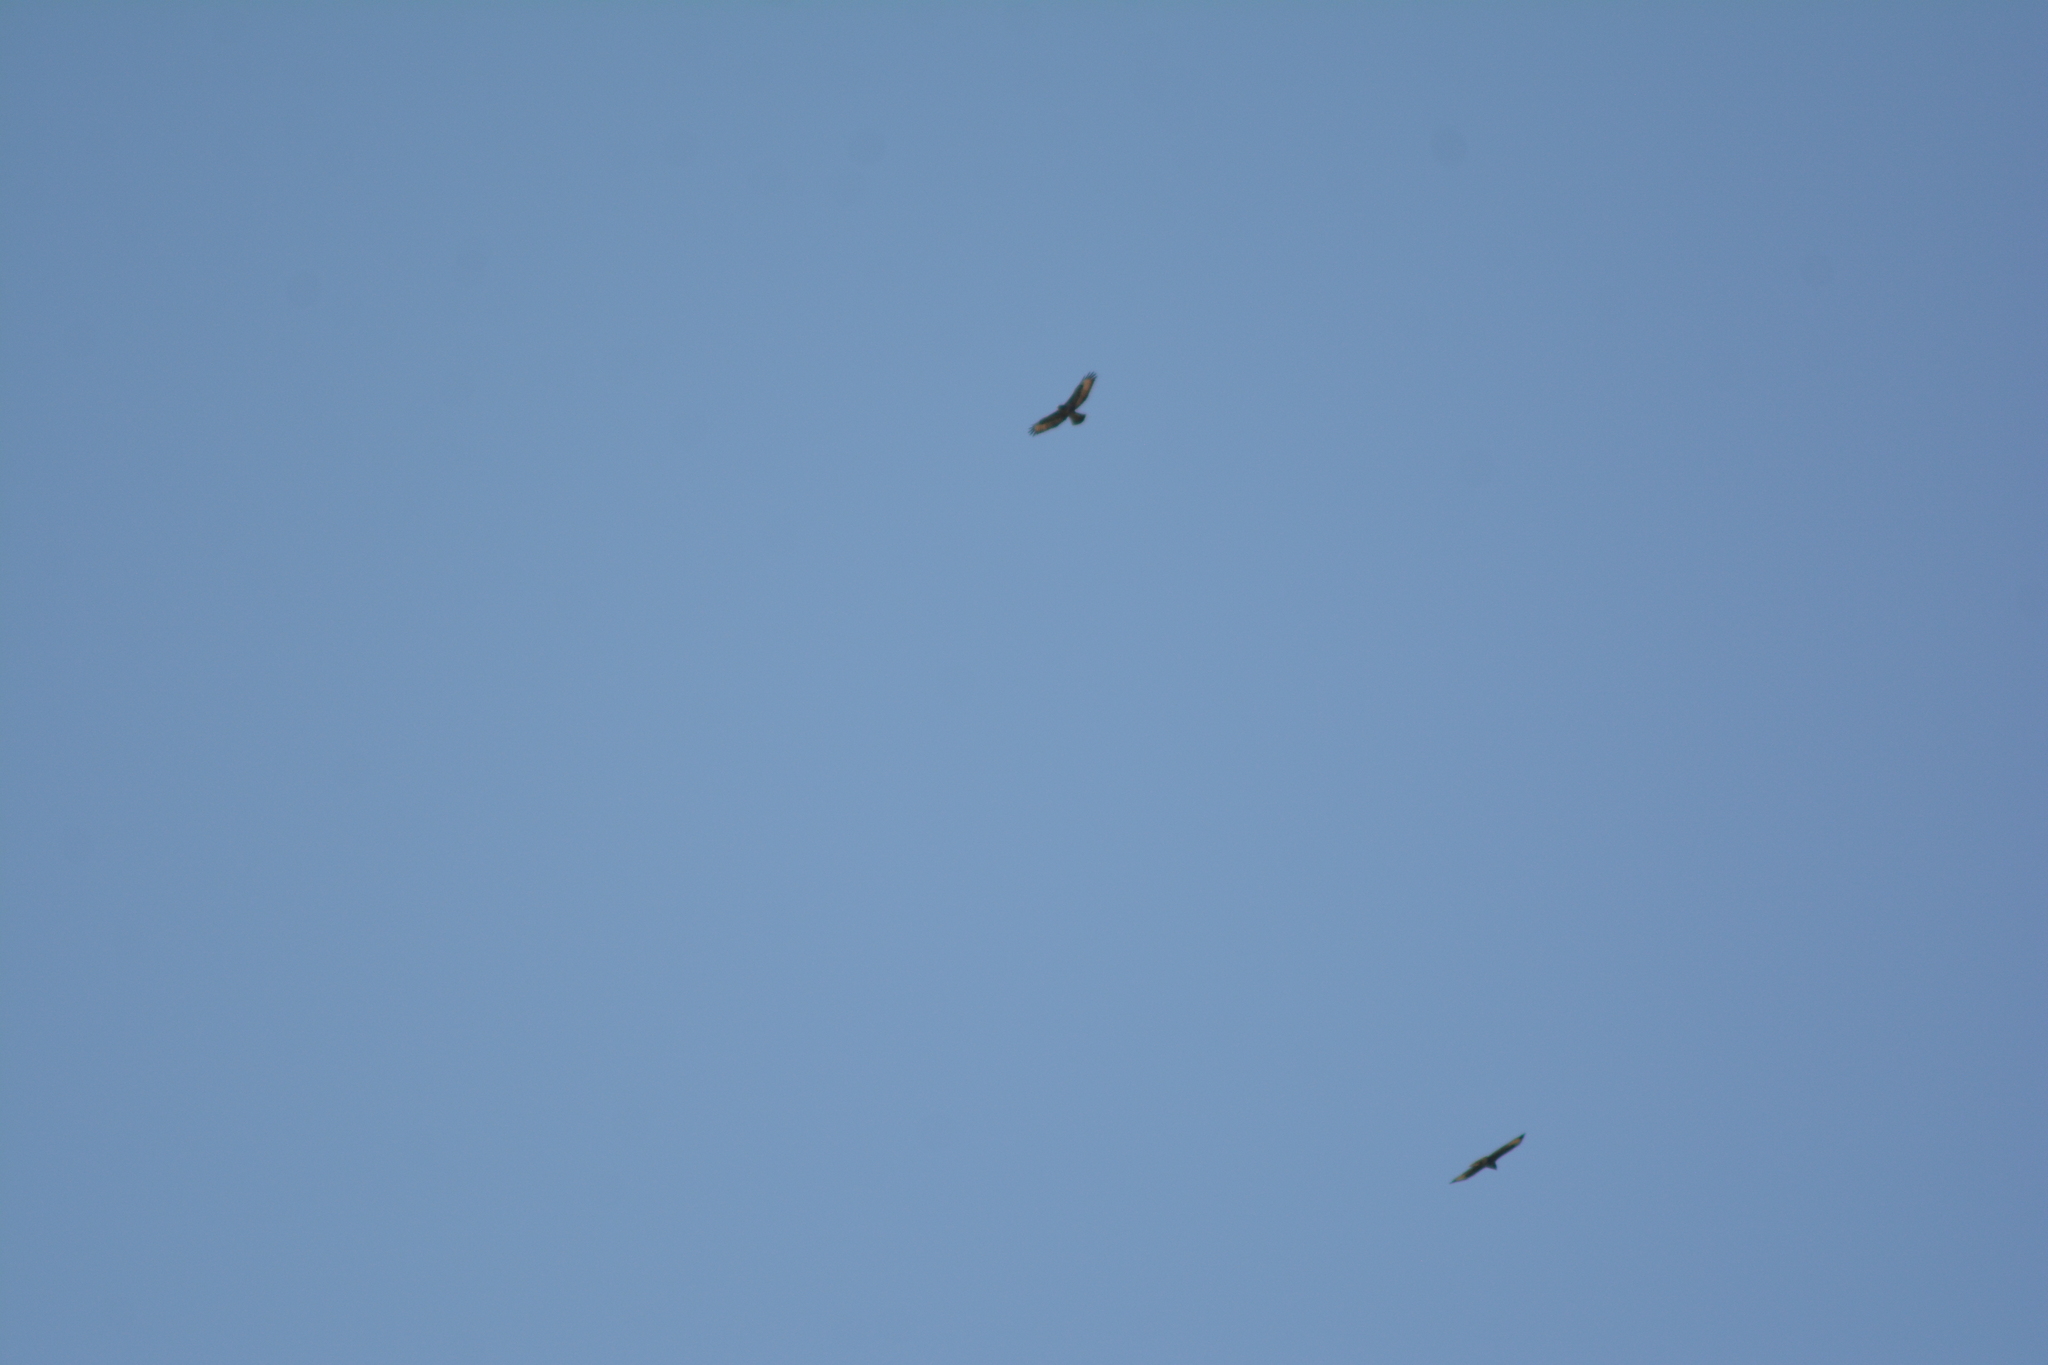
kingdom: Animalia
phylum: Chordata
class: Aves
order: Accipitriformes
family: Accipitridae
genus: Buteo
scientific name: Buteo buteo
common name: Common buzzard
